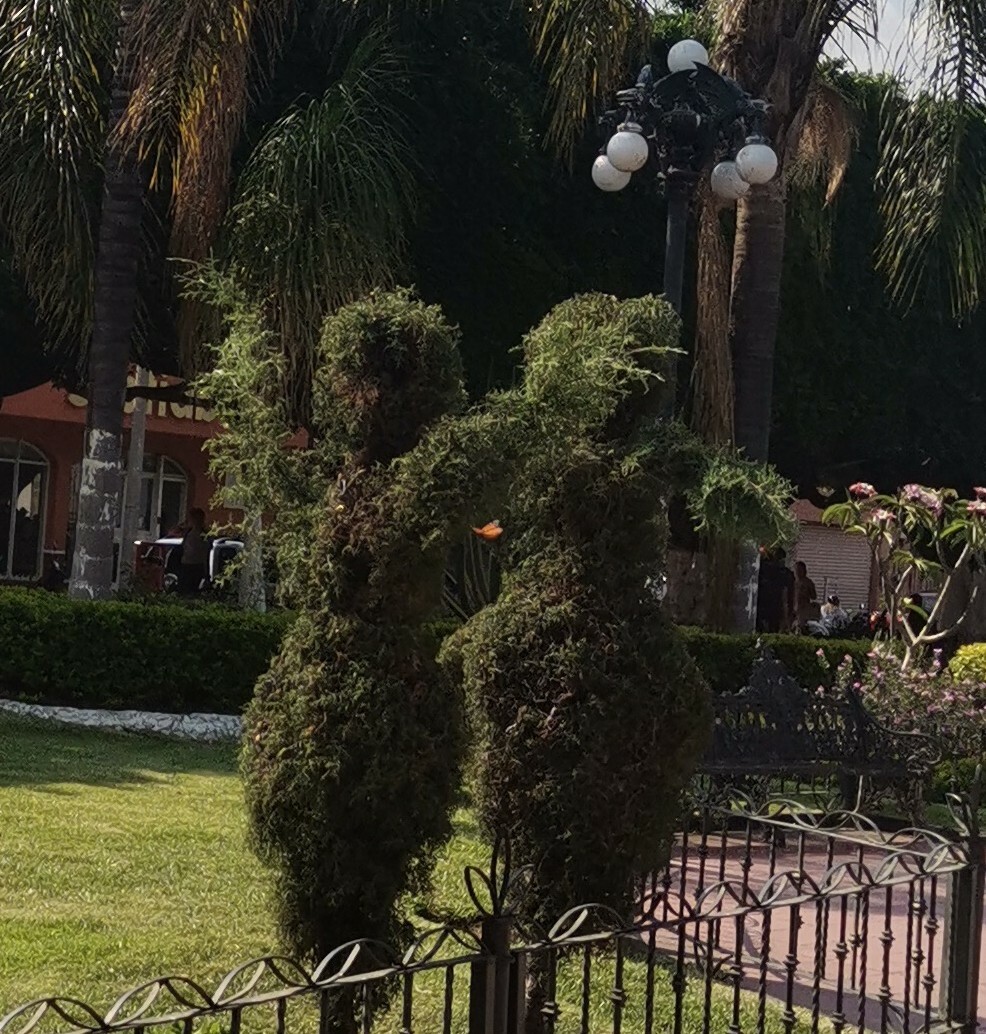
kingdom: Animalia
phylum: Arthropoda
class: Insecta
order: Lepidoptera
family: Nymphalidae
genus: Danaus
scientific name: Danaus plexippus
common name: Monarch
